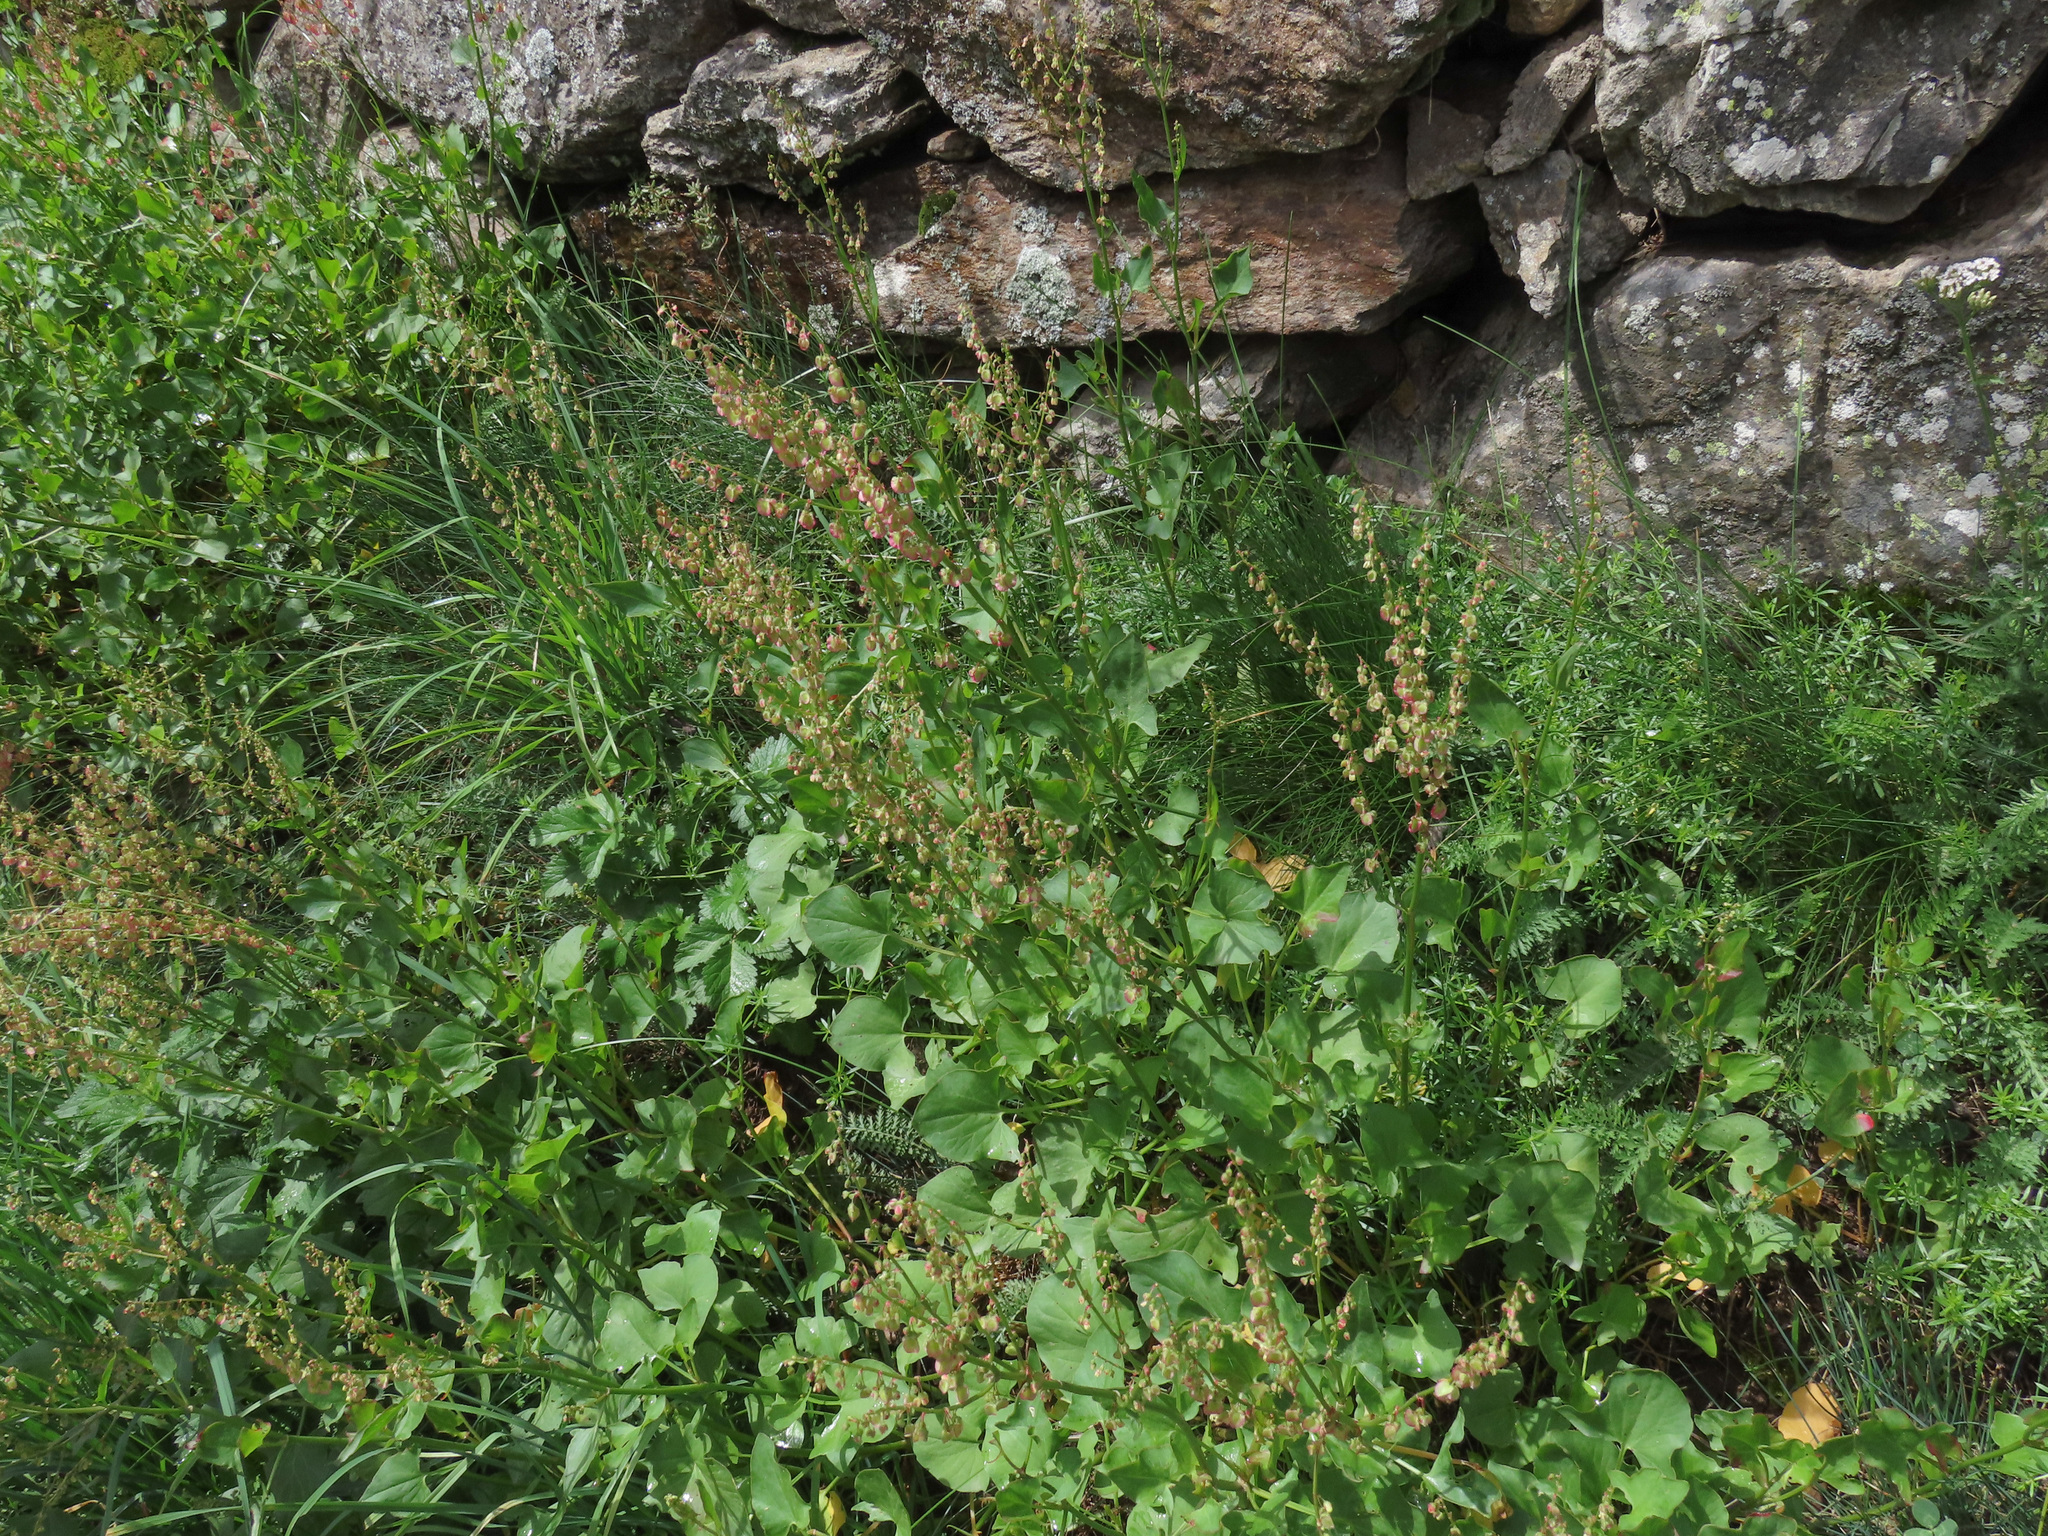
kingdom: Plantae
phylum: Tracheophyta
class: Magnoliopsida
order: Caryophyllales
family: Polygonaceae
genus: Rumex
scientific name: Rumex scutatus
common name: French sorrel
